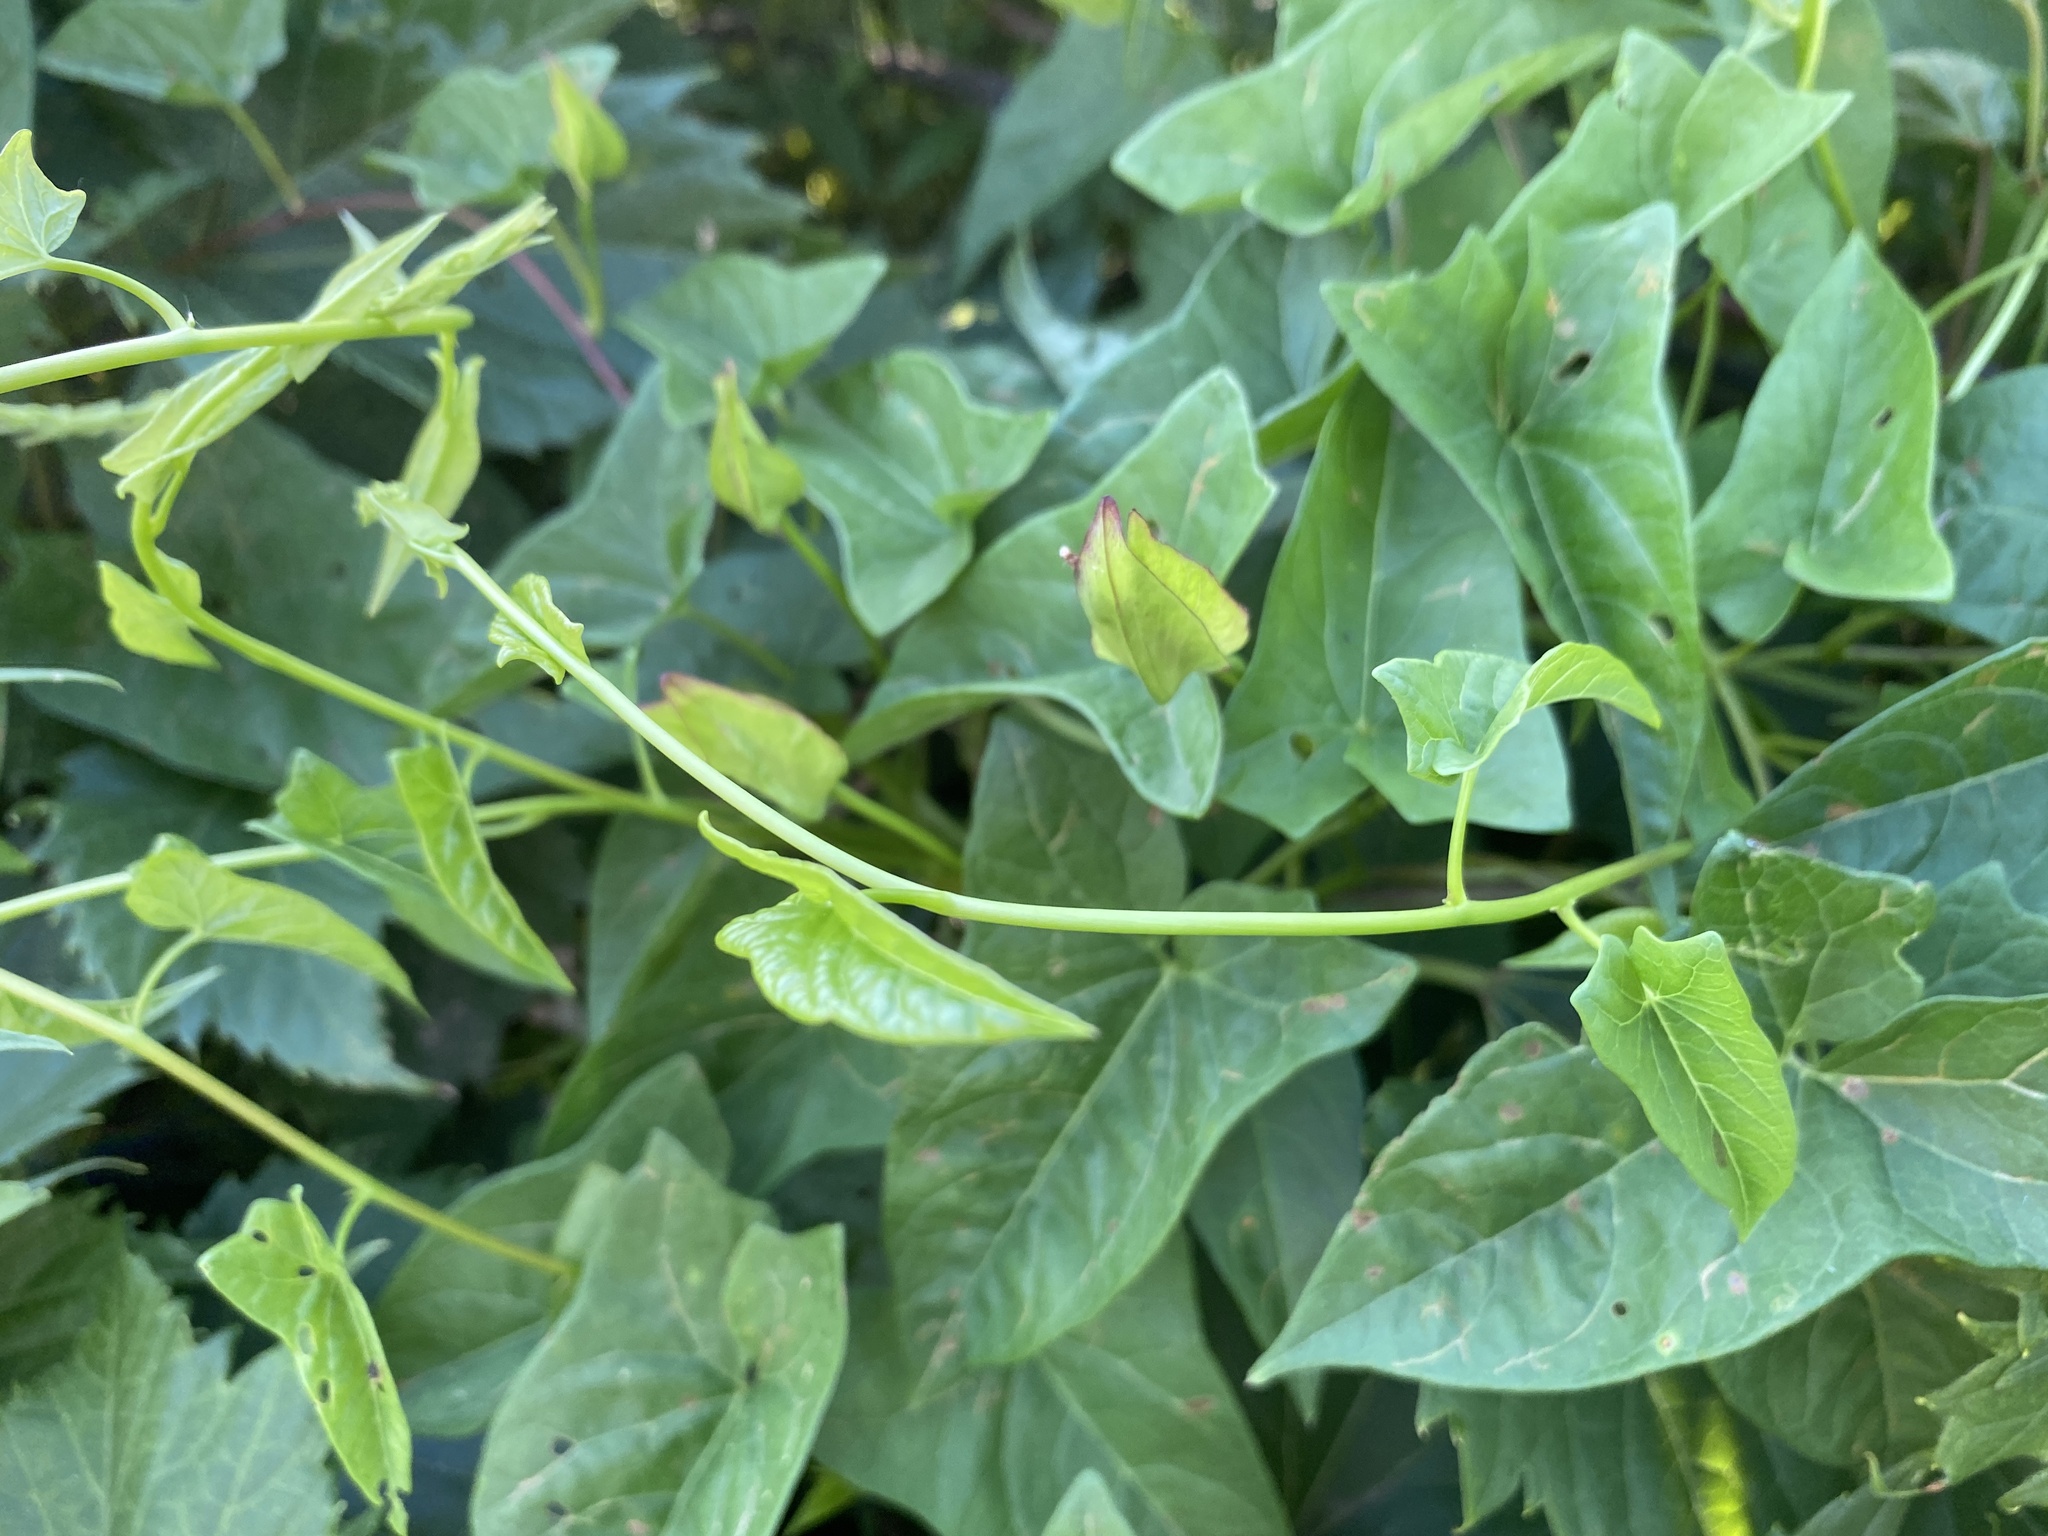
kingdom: Plantae
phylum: Tracheophyta
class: Magnoliopsida
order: Solanales
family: Convolvulaceae
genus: Calystegia
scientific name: Calystegia sepium
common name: Hedge bindweed
